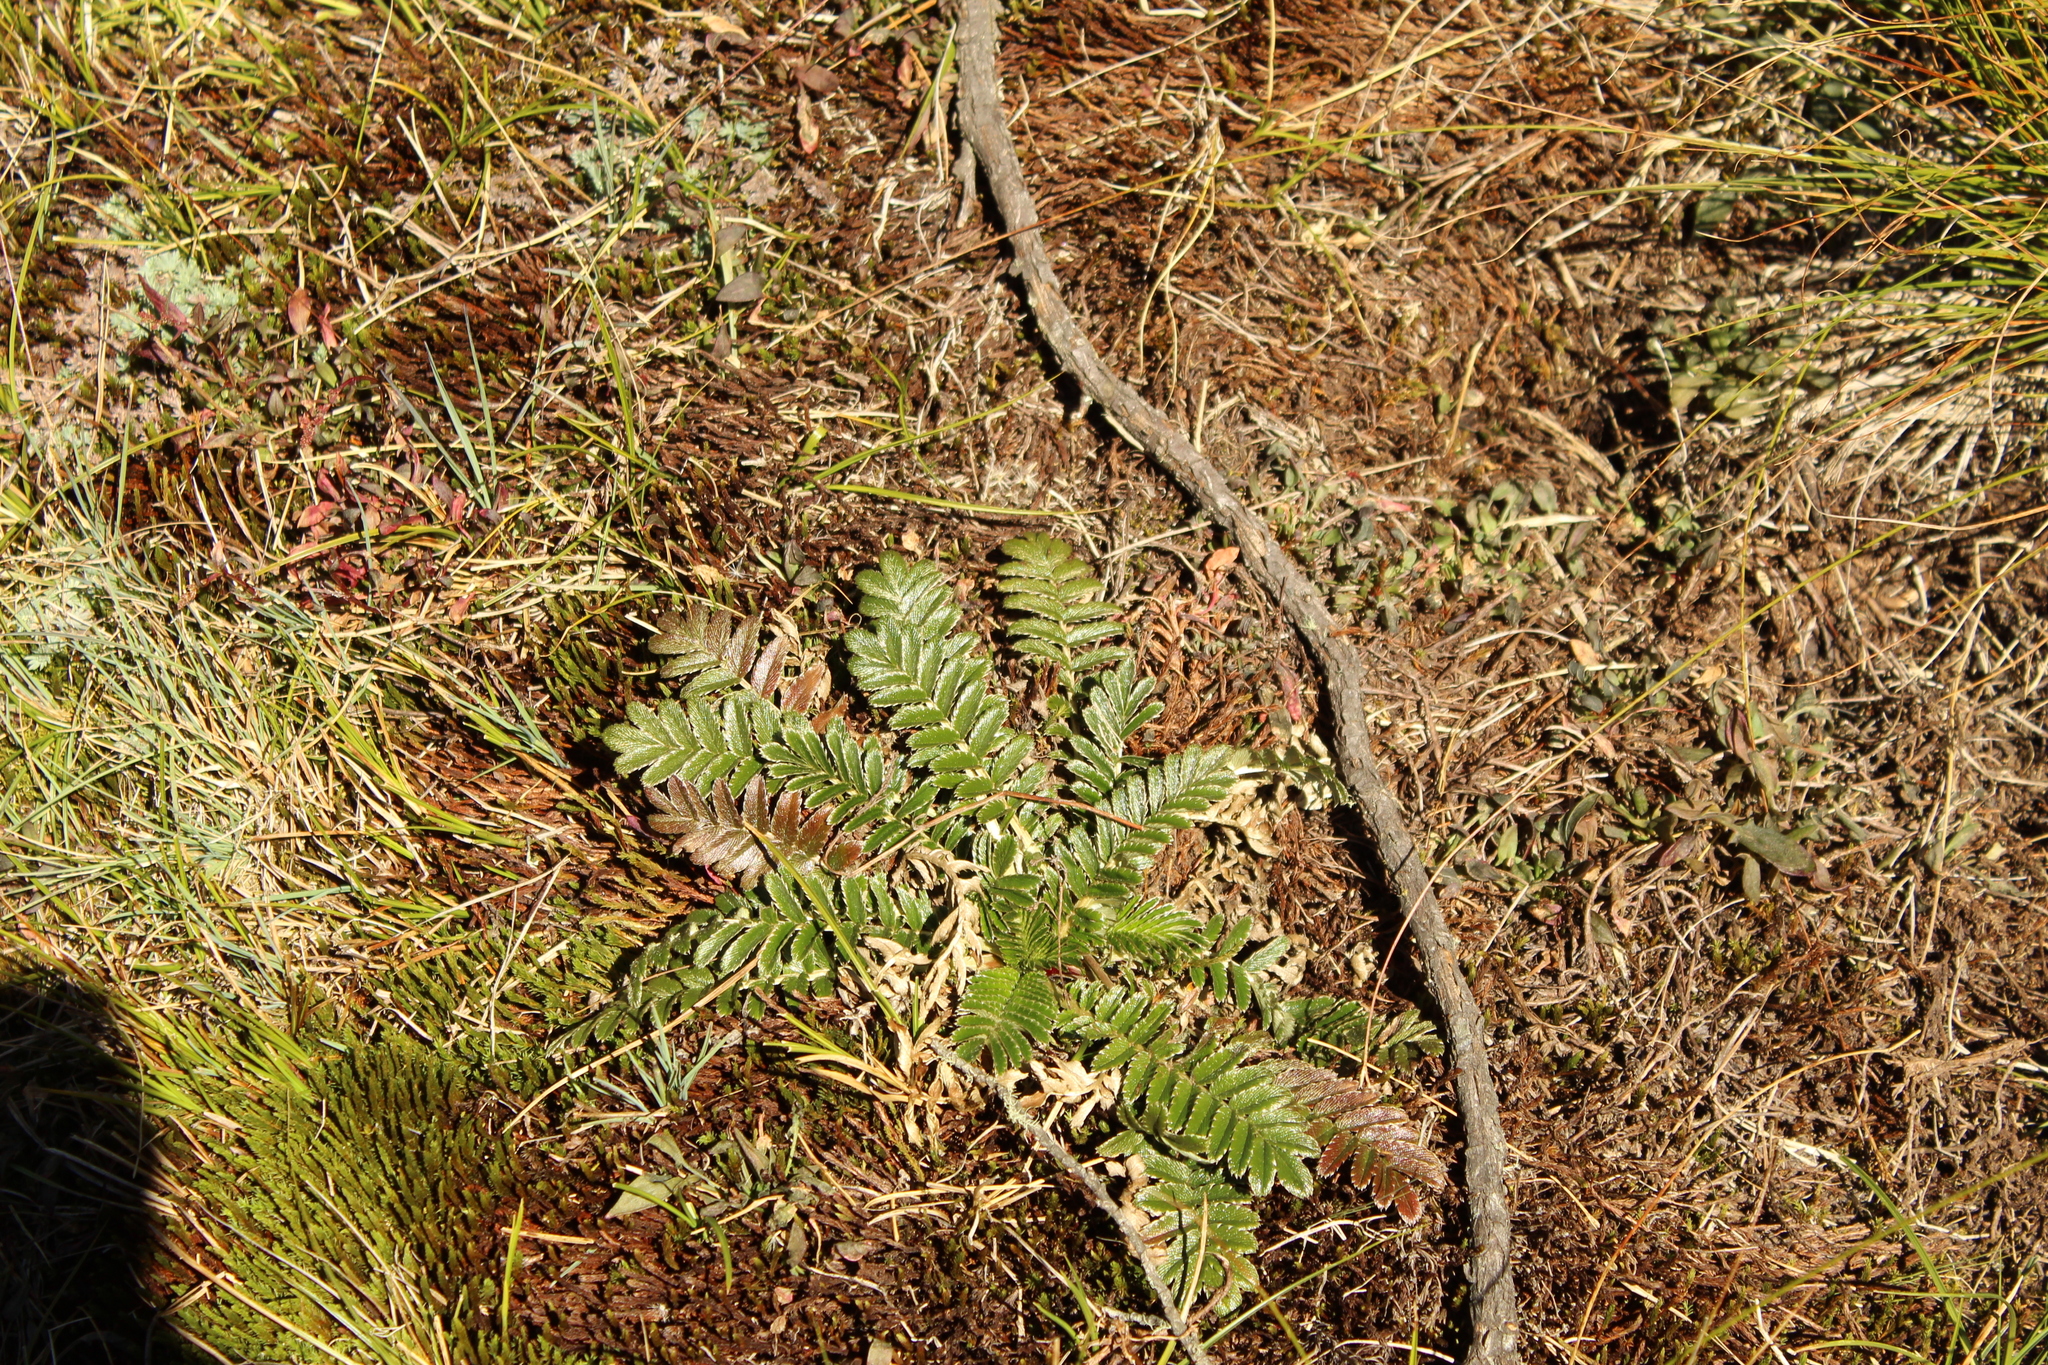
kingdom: Plantae
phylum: Tracheophyta
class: Magnoliopsida
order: Rosales
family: Rosaceae
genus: Acaena
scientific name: Acaena cylindristachya
